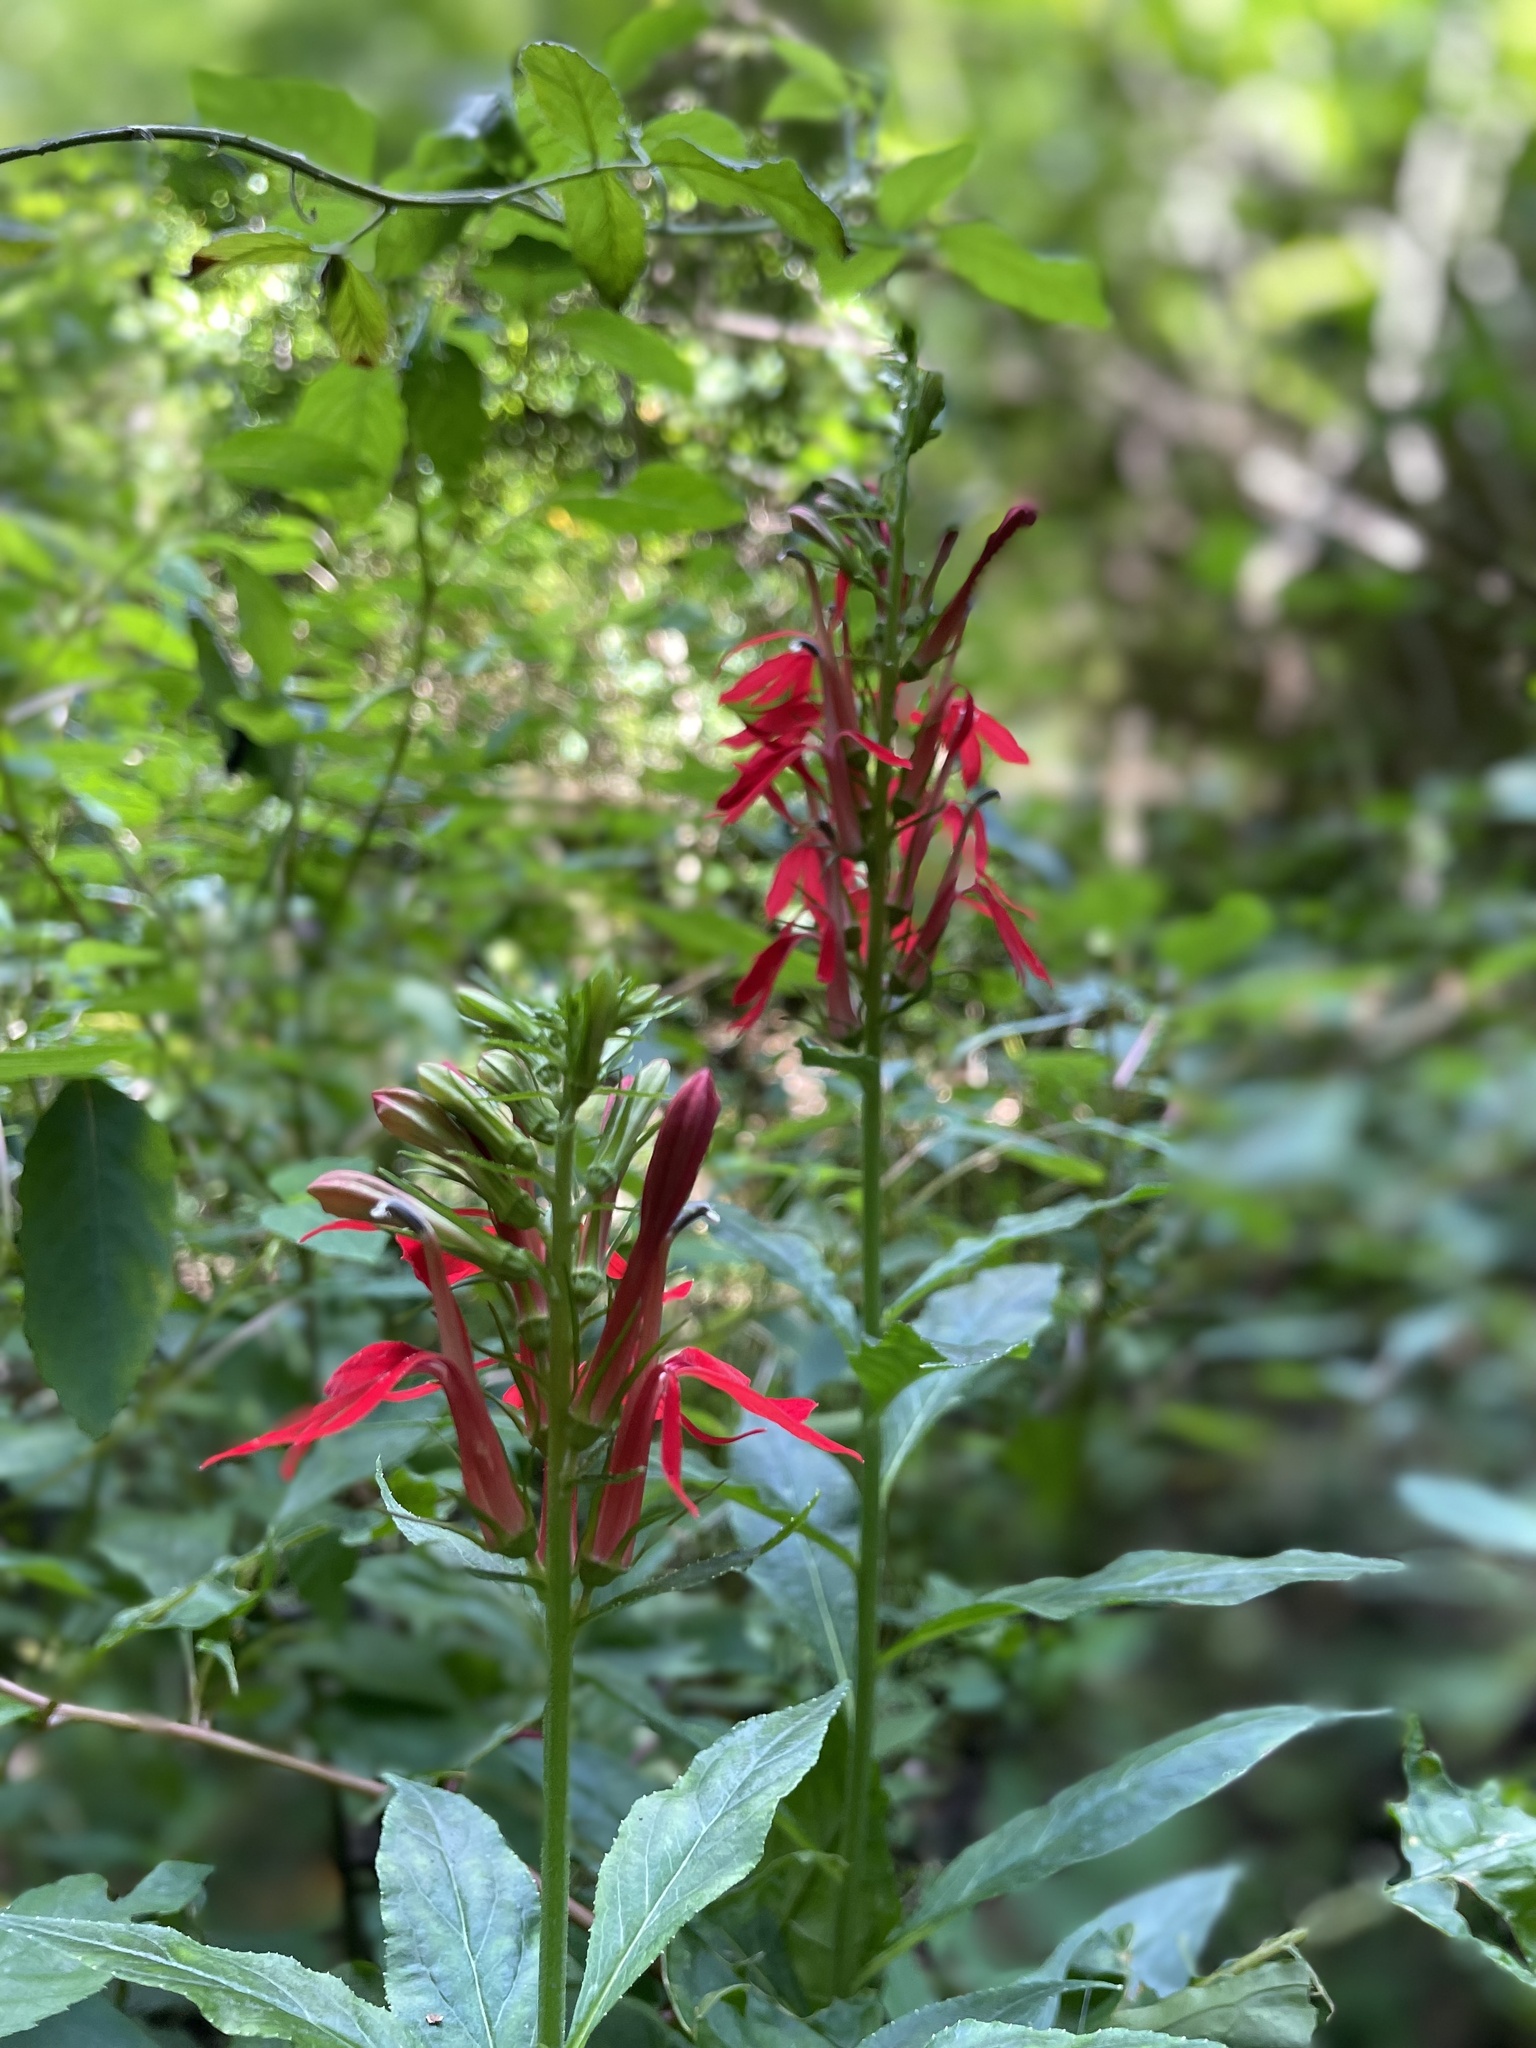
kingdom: Plantae
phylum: Tracheophyta
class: Magnoliopsida
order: Asterales
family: Campanulaceae
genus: Lobelia
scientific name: Lobelia cardinalis
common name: Cardinal flower
